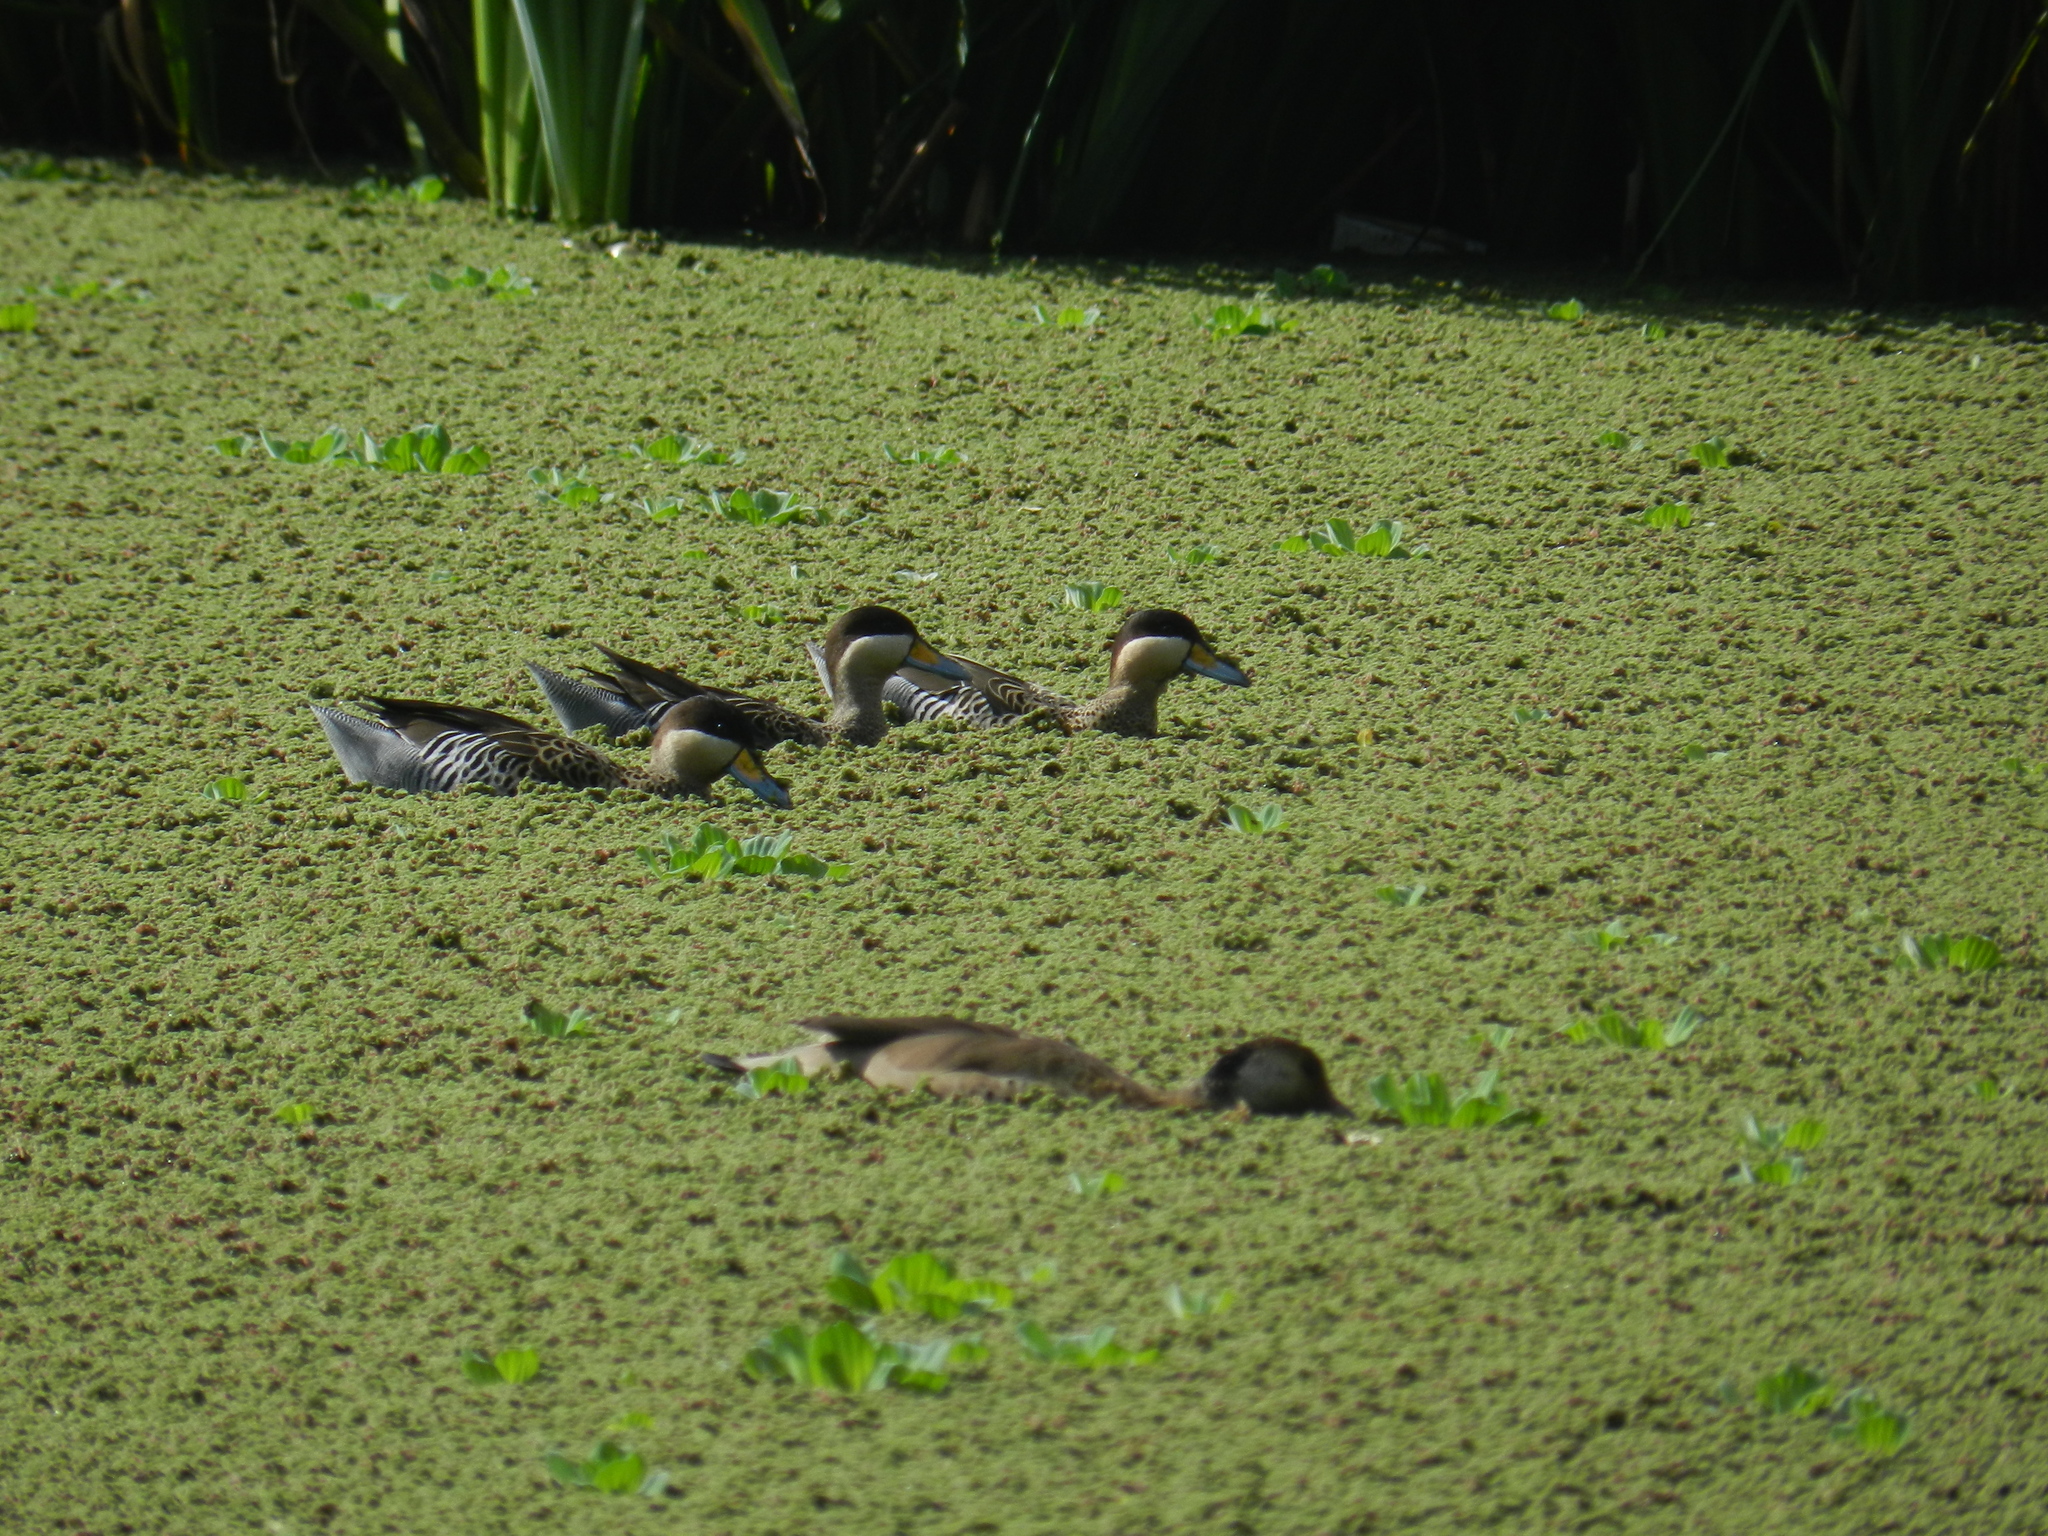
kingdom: Animalia
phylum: Chordata
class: Aves
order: Anseriformes
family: Anatidae
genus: Spatula
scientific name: Spatula versicolor
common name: Silver teal
